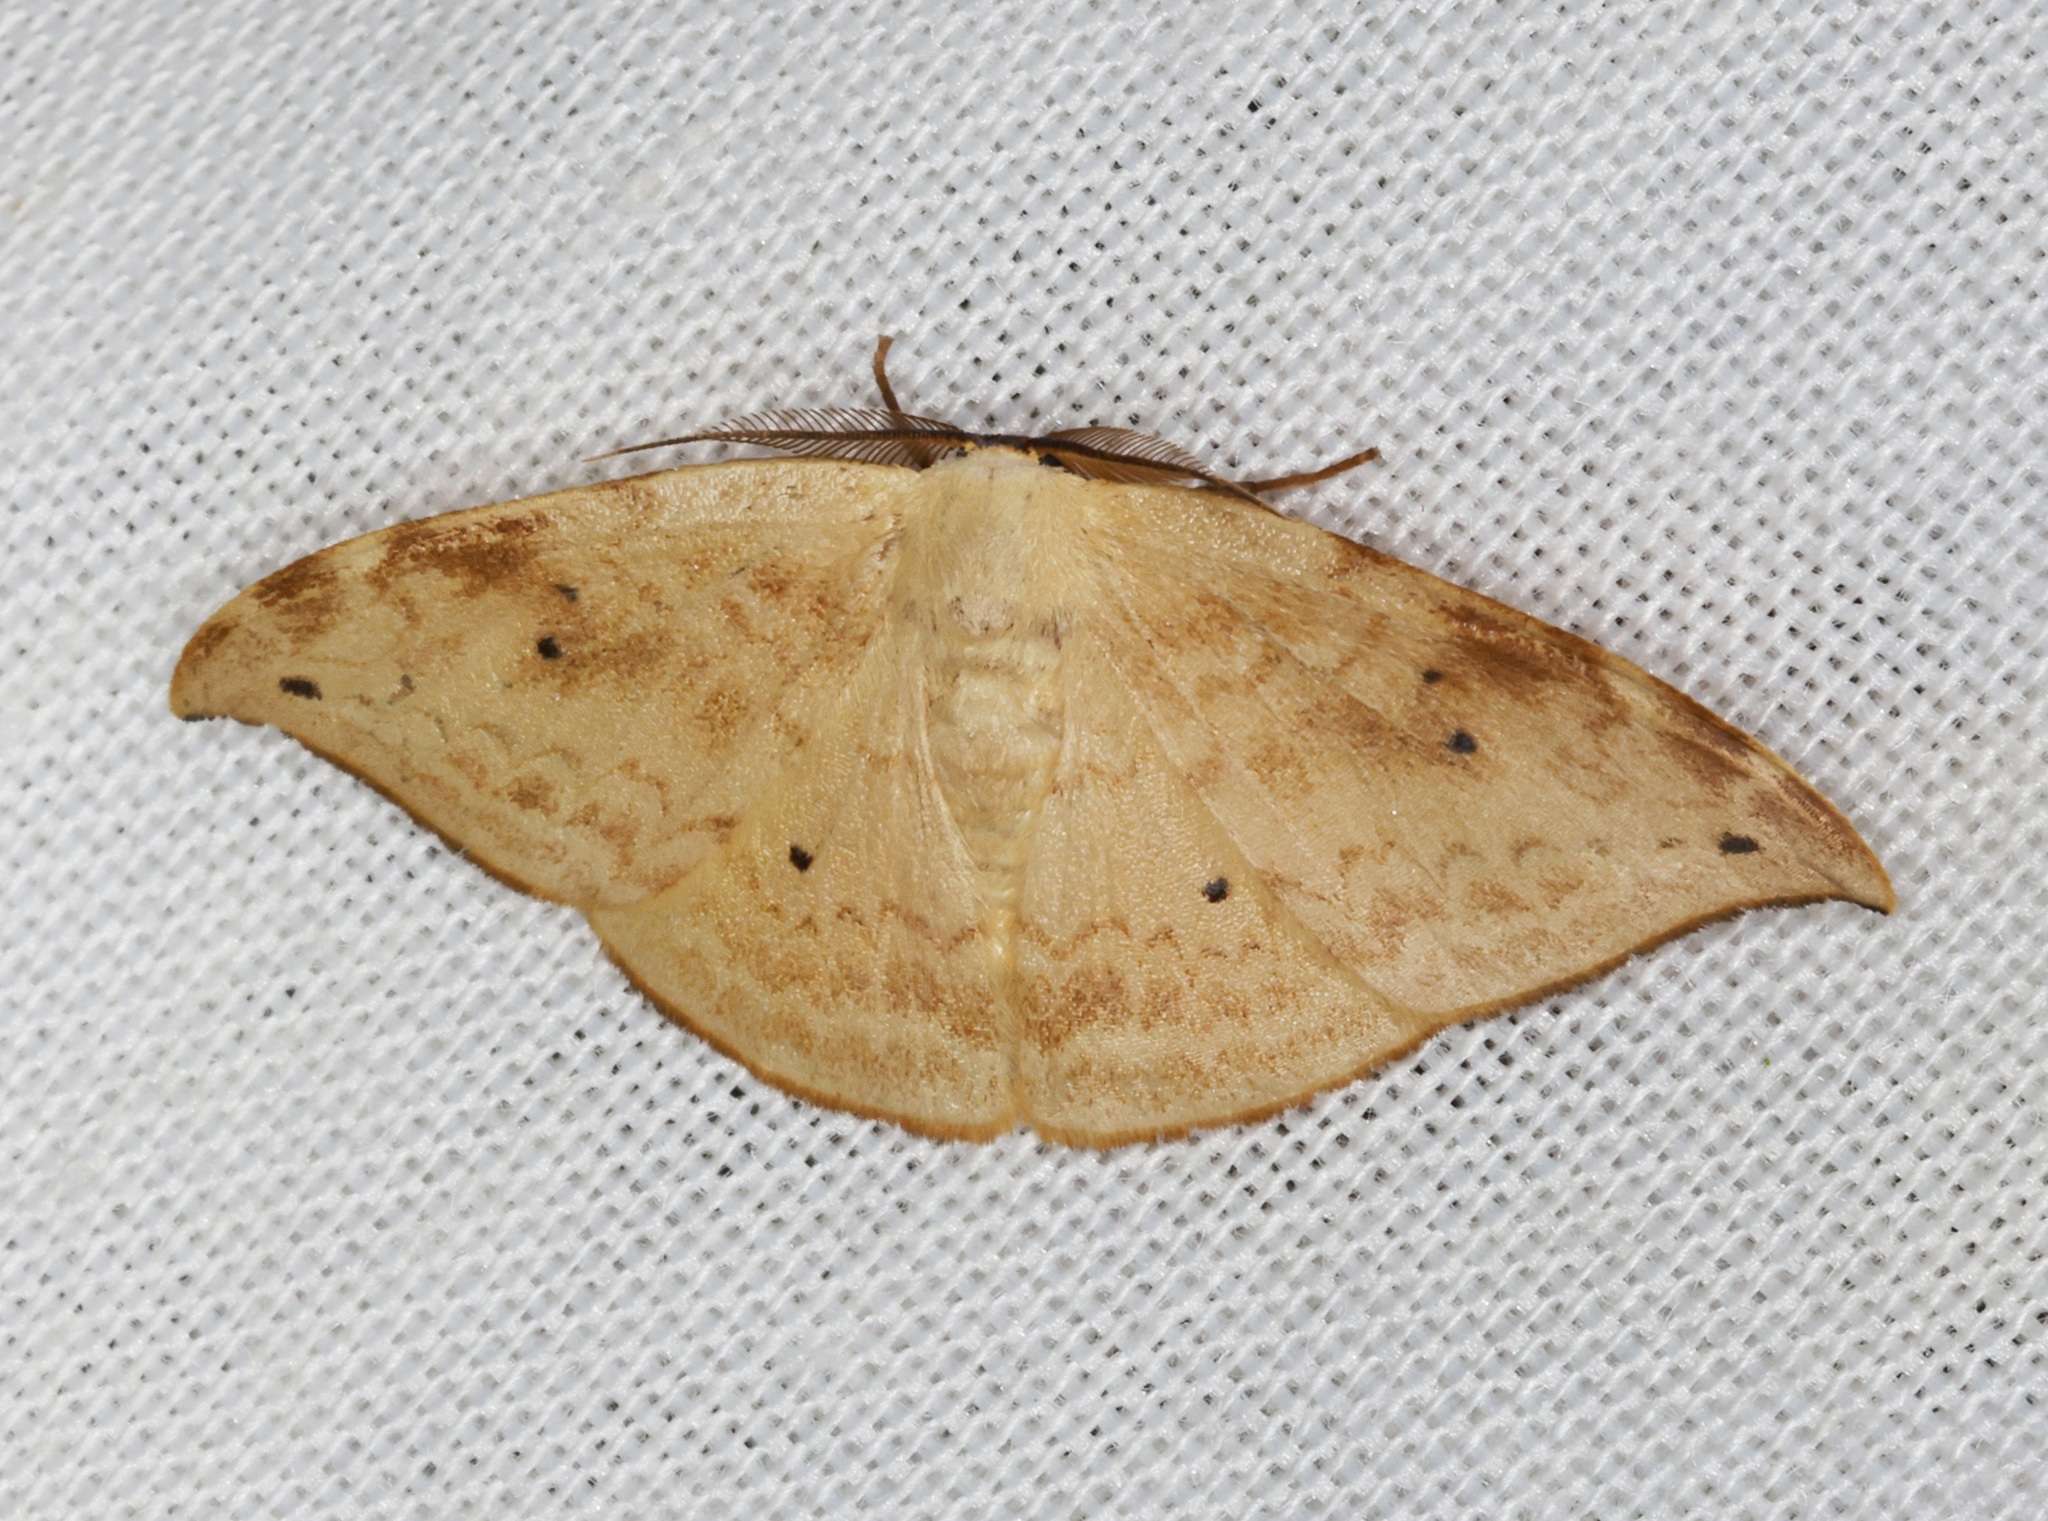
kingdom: Animalia
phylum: Arthropoda
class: Insecta
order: Lepidoptera
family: Drepanidae
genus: Strepsigonia
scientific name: Strepsigonia diluta
